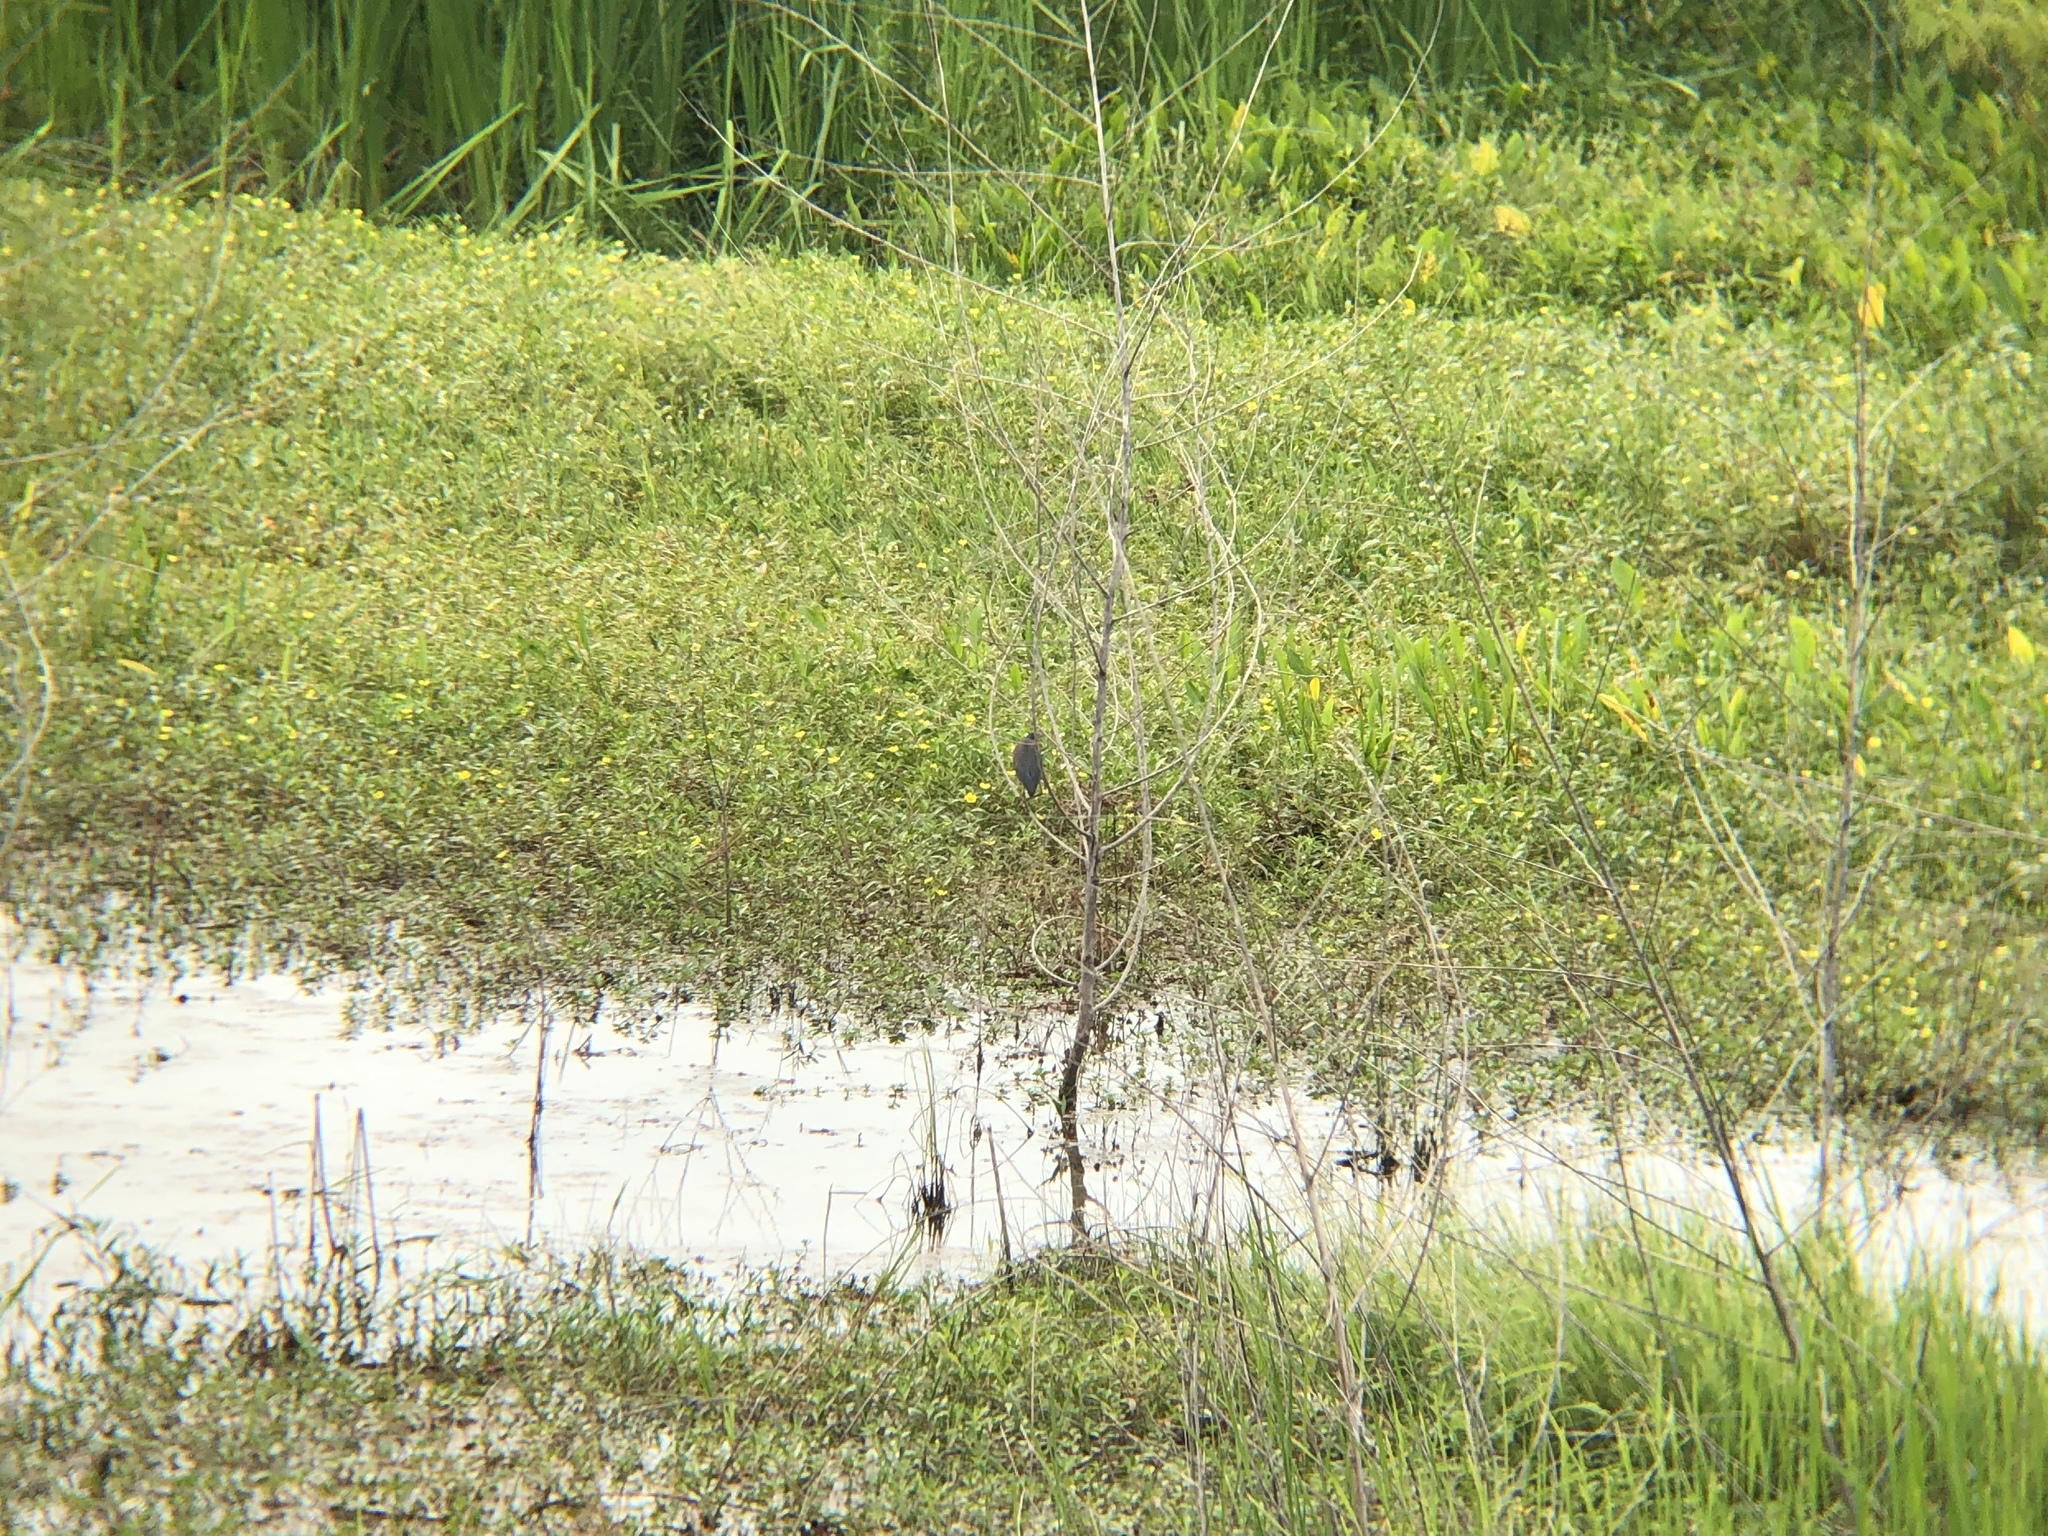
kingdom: Animalia
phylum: Chordata
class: Aves
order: Pelecaniformes
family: Ardeidae
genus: Butorides
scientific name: Butorides virescens
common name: Green heron
